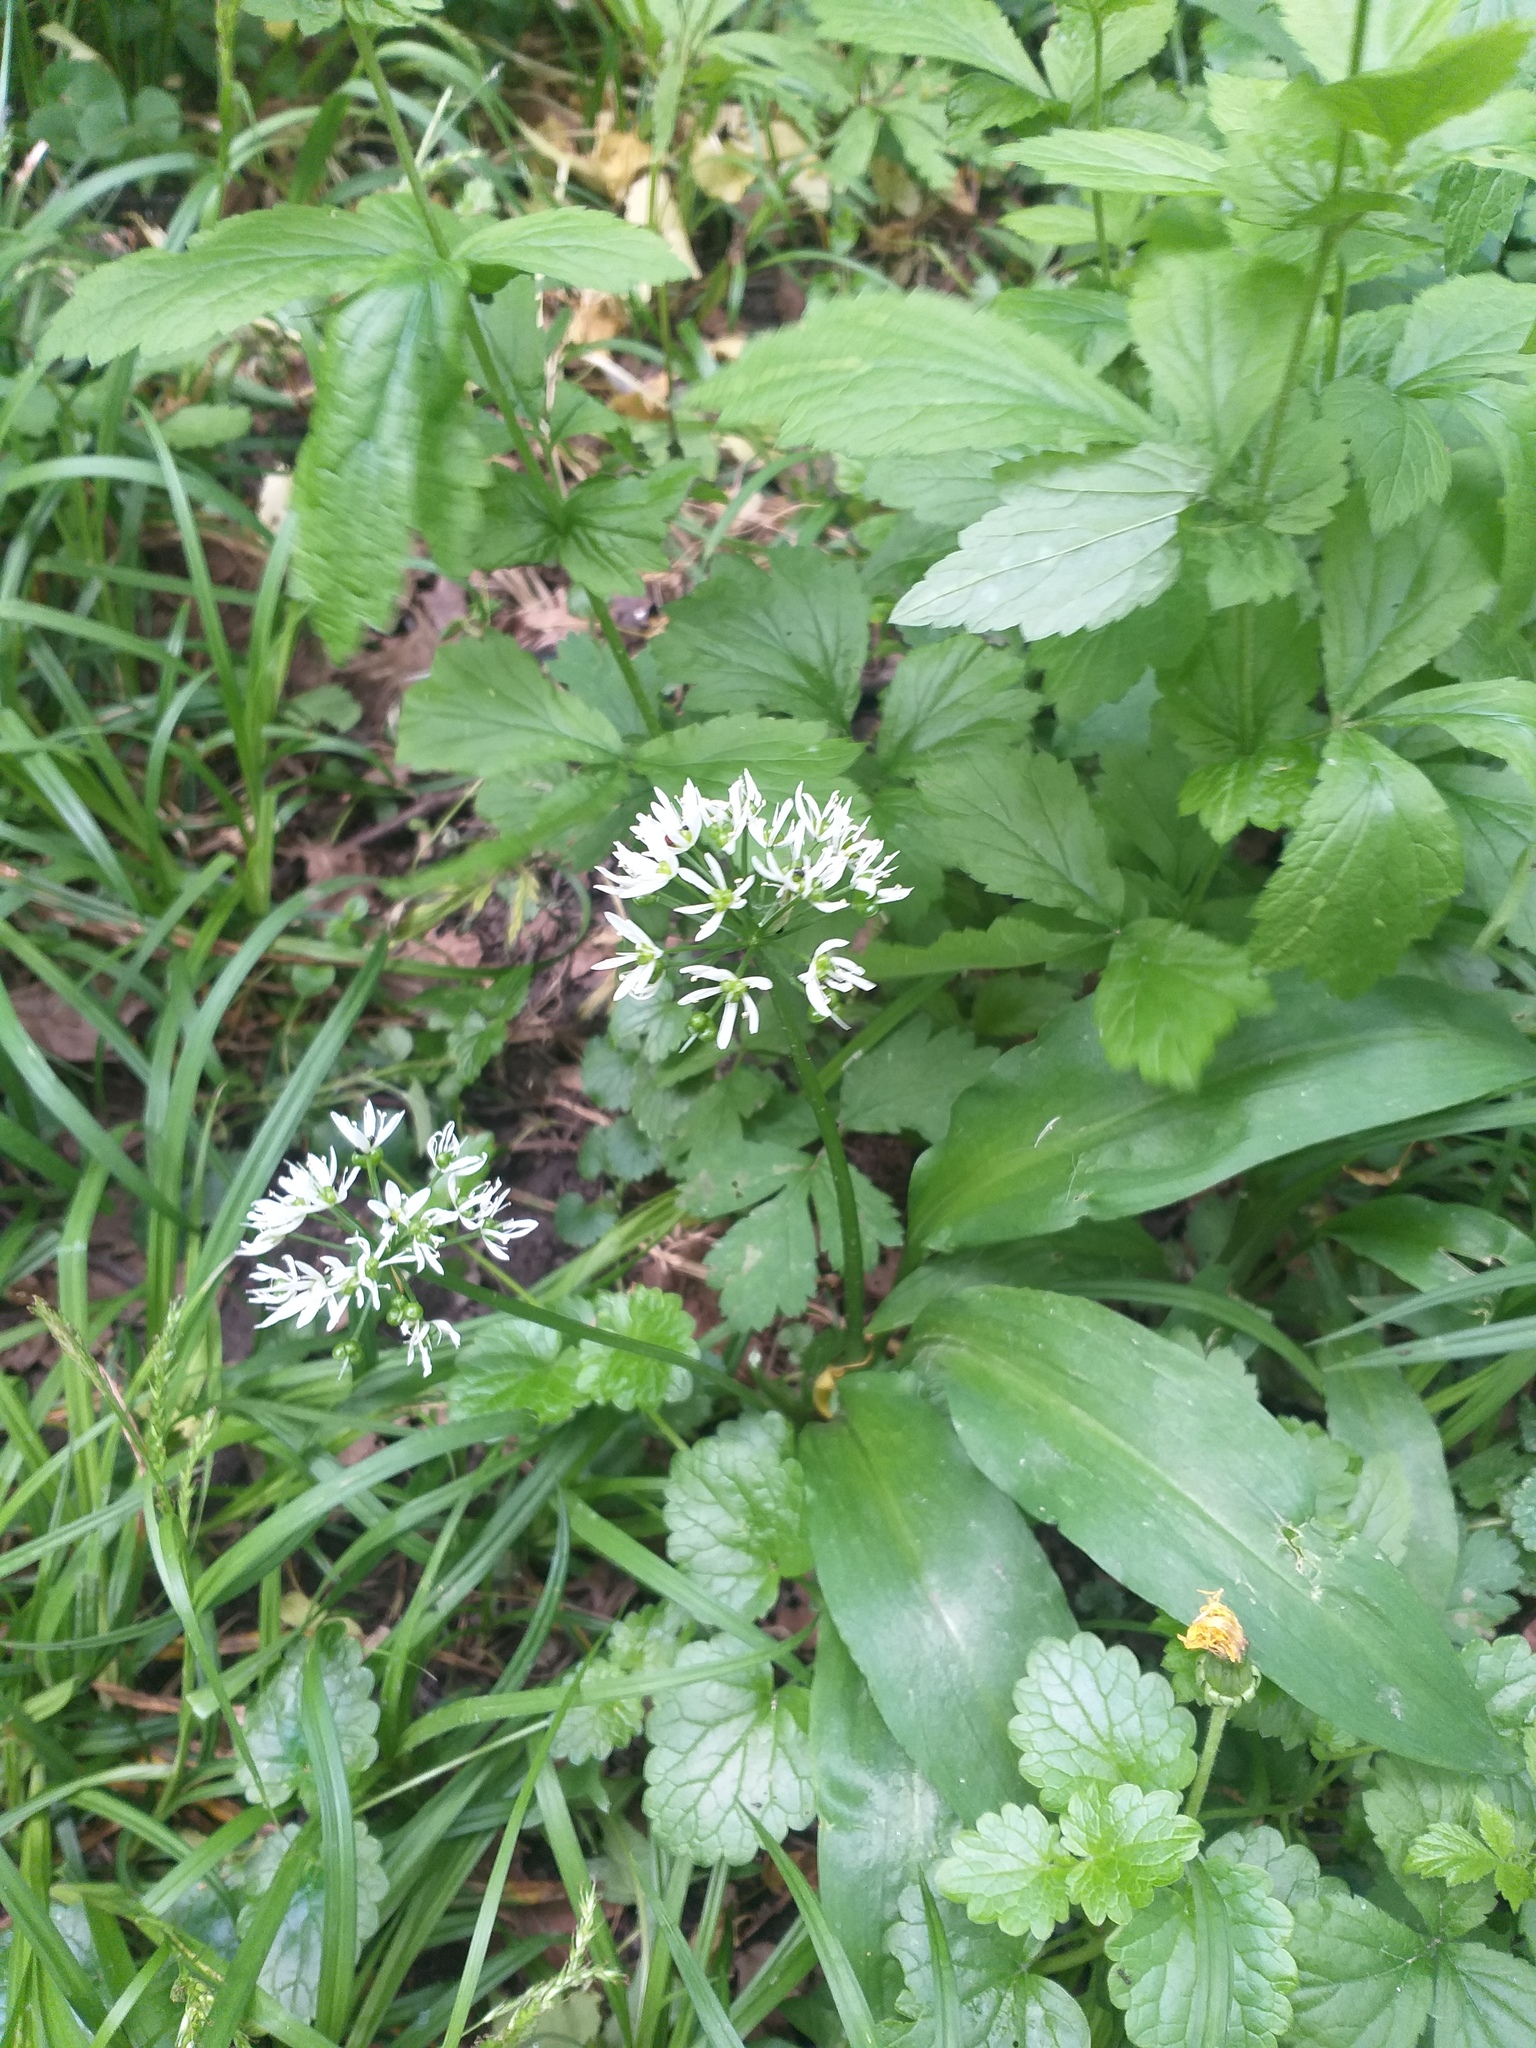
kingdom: Plantae
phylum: Tracheophyta
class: Liliopsida
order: Asparagales
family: Amaryllidaceae
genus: Allium
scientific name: Allium ursinum
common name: Ramsons
